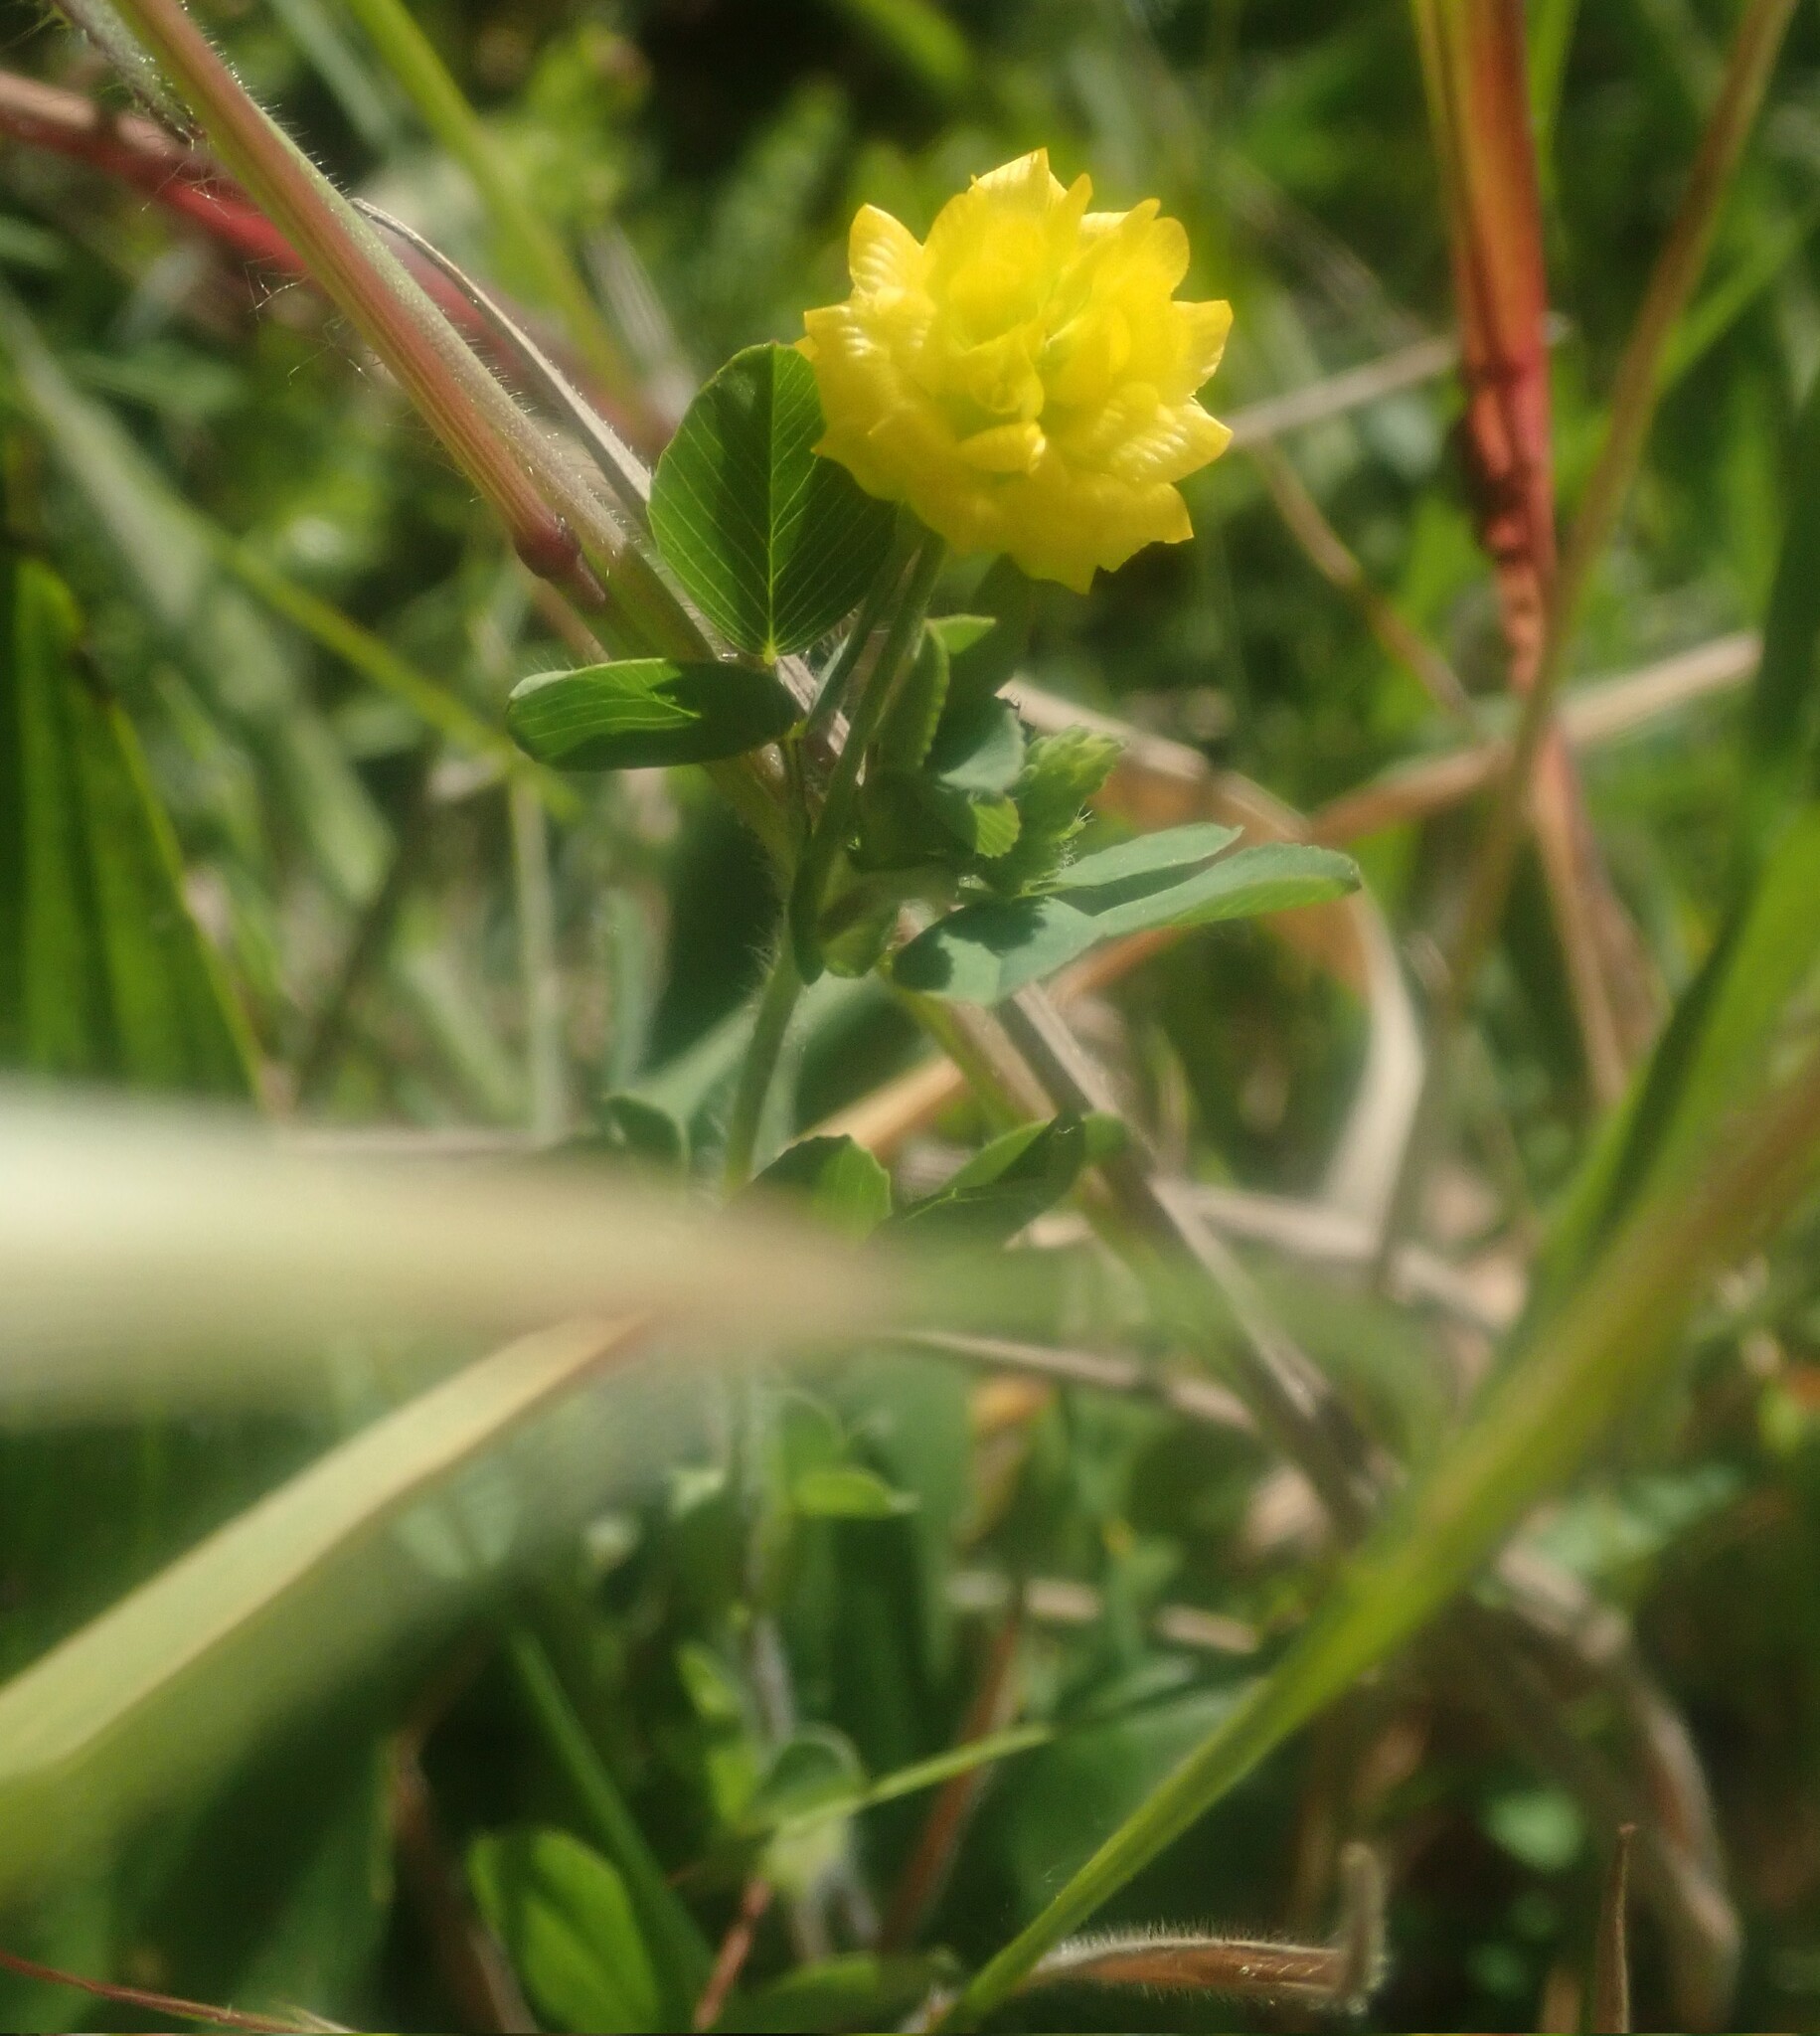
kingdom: Plantae
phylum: Tracheophyta
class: Magnoliopsida
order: Fabales
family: Fabaceae
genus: Trifolium
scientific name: Trifolium campestre
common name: Field clover
